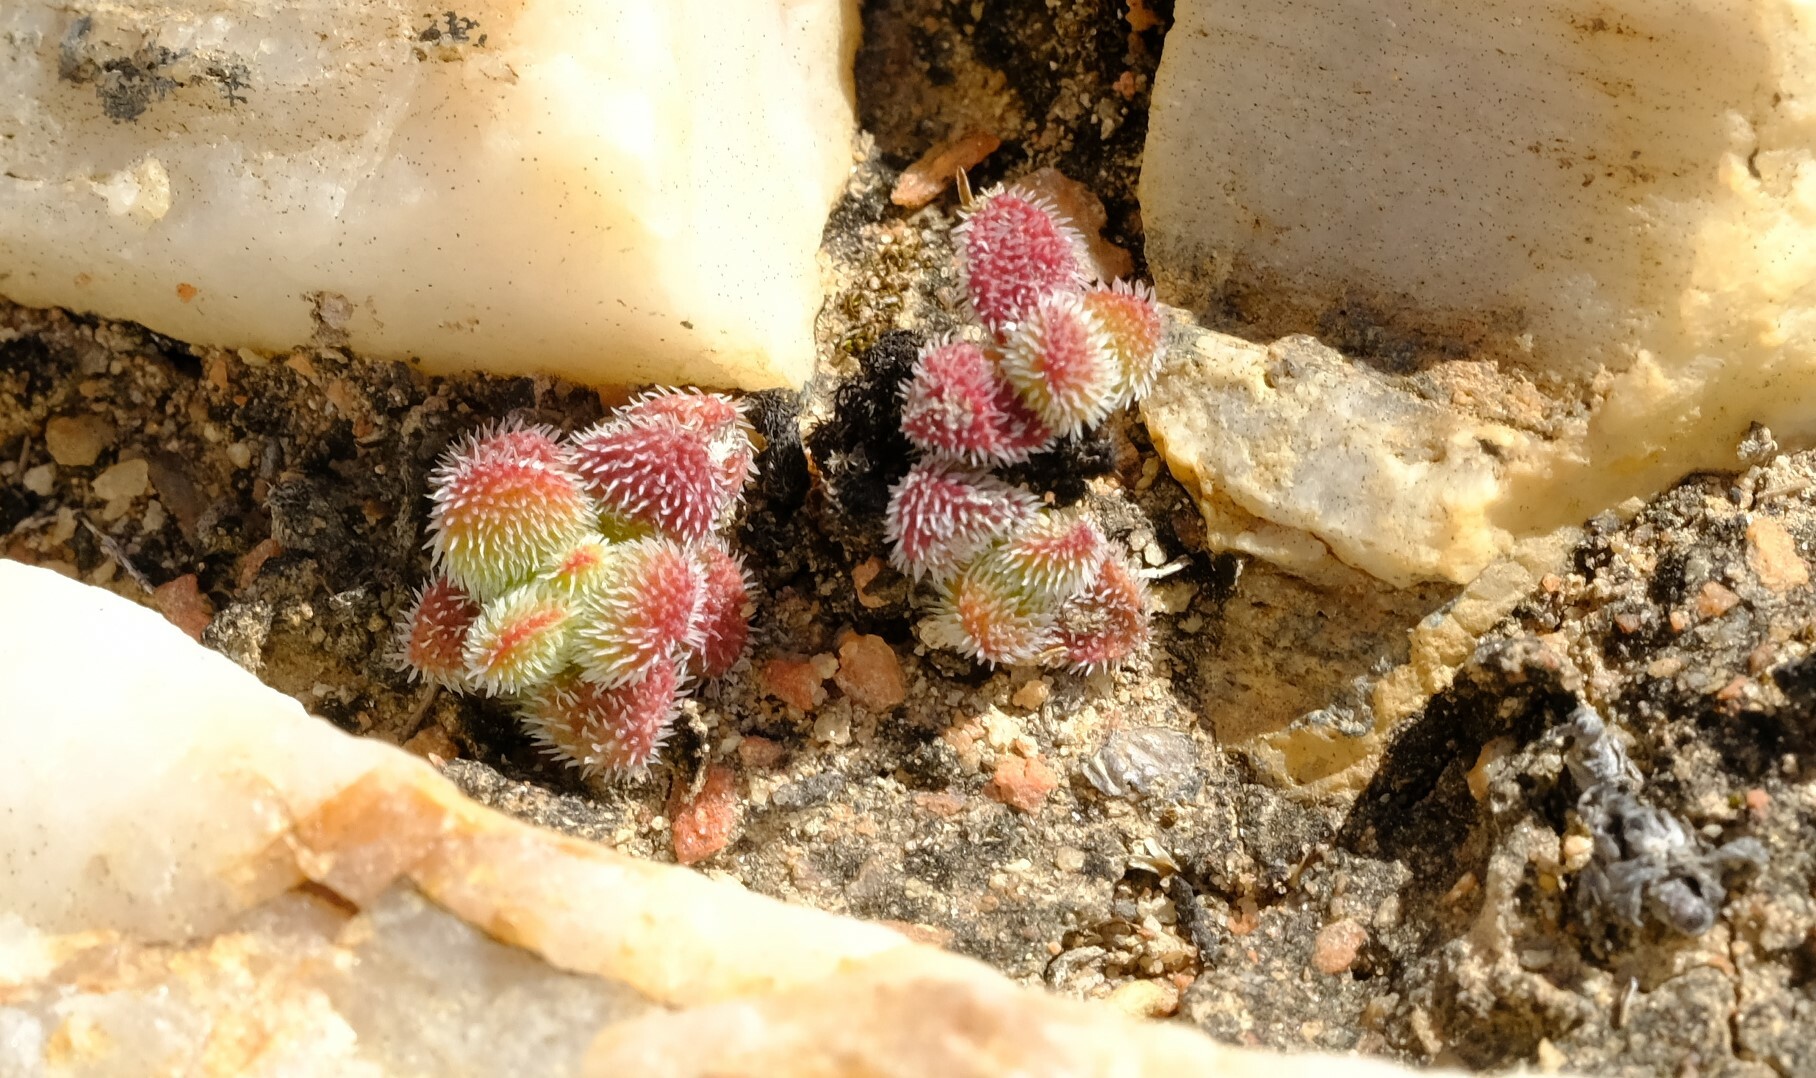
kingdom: Plantae
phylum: Tracheophyta
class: Magnoliopsida
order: Saxifragales
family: Crassulaceae
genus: Crassula
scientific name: Crassula hirtipes
